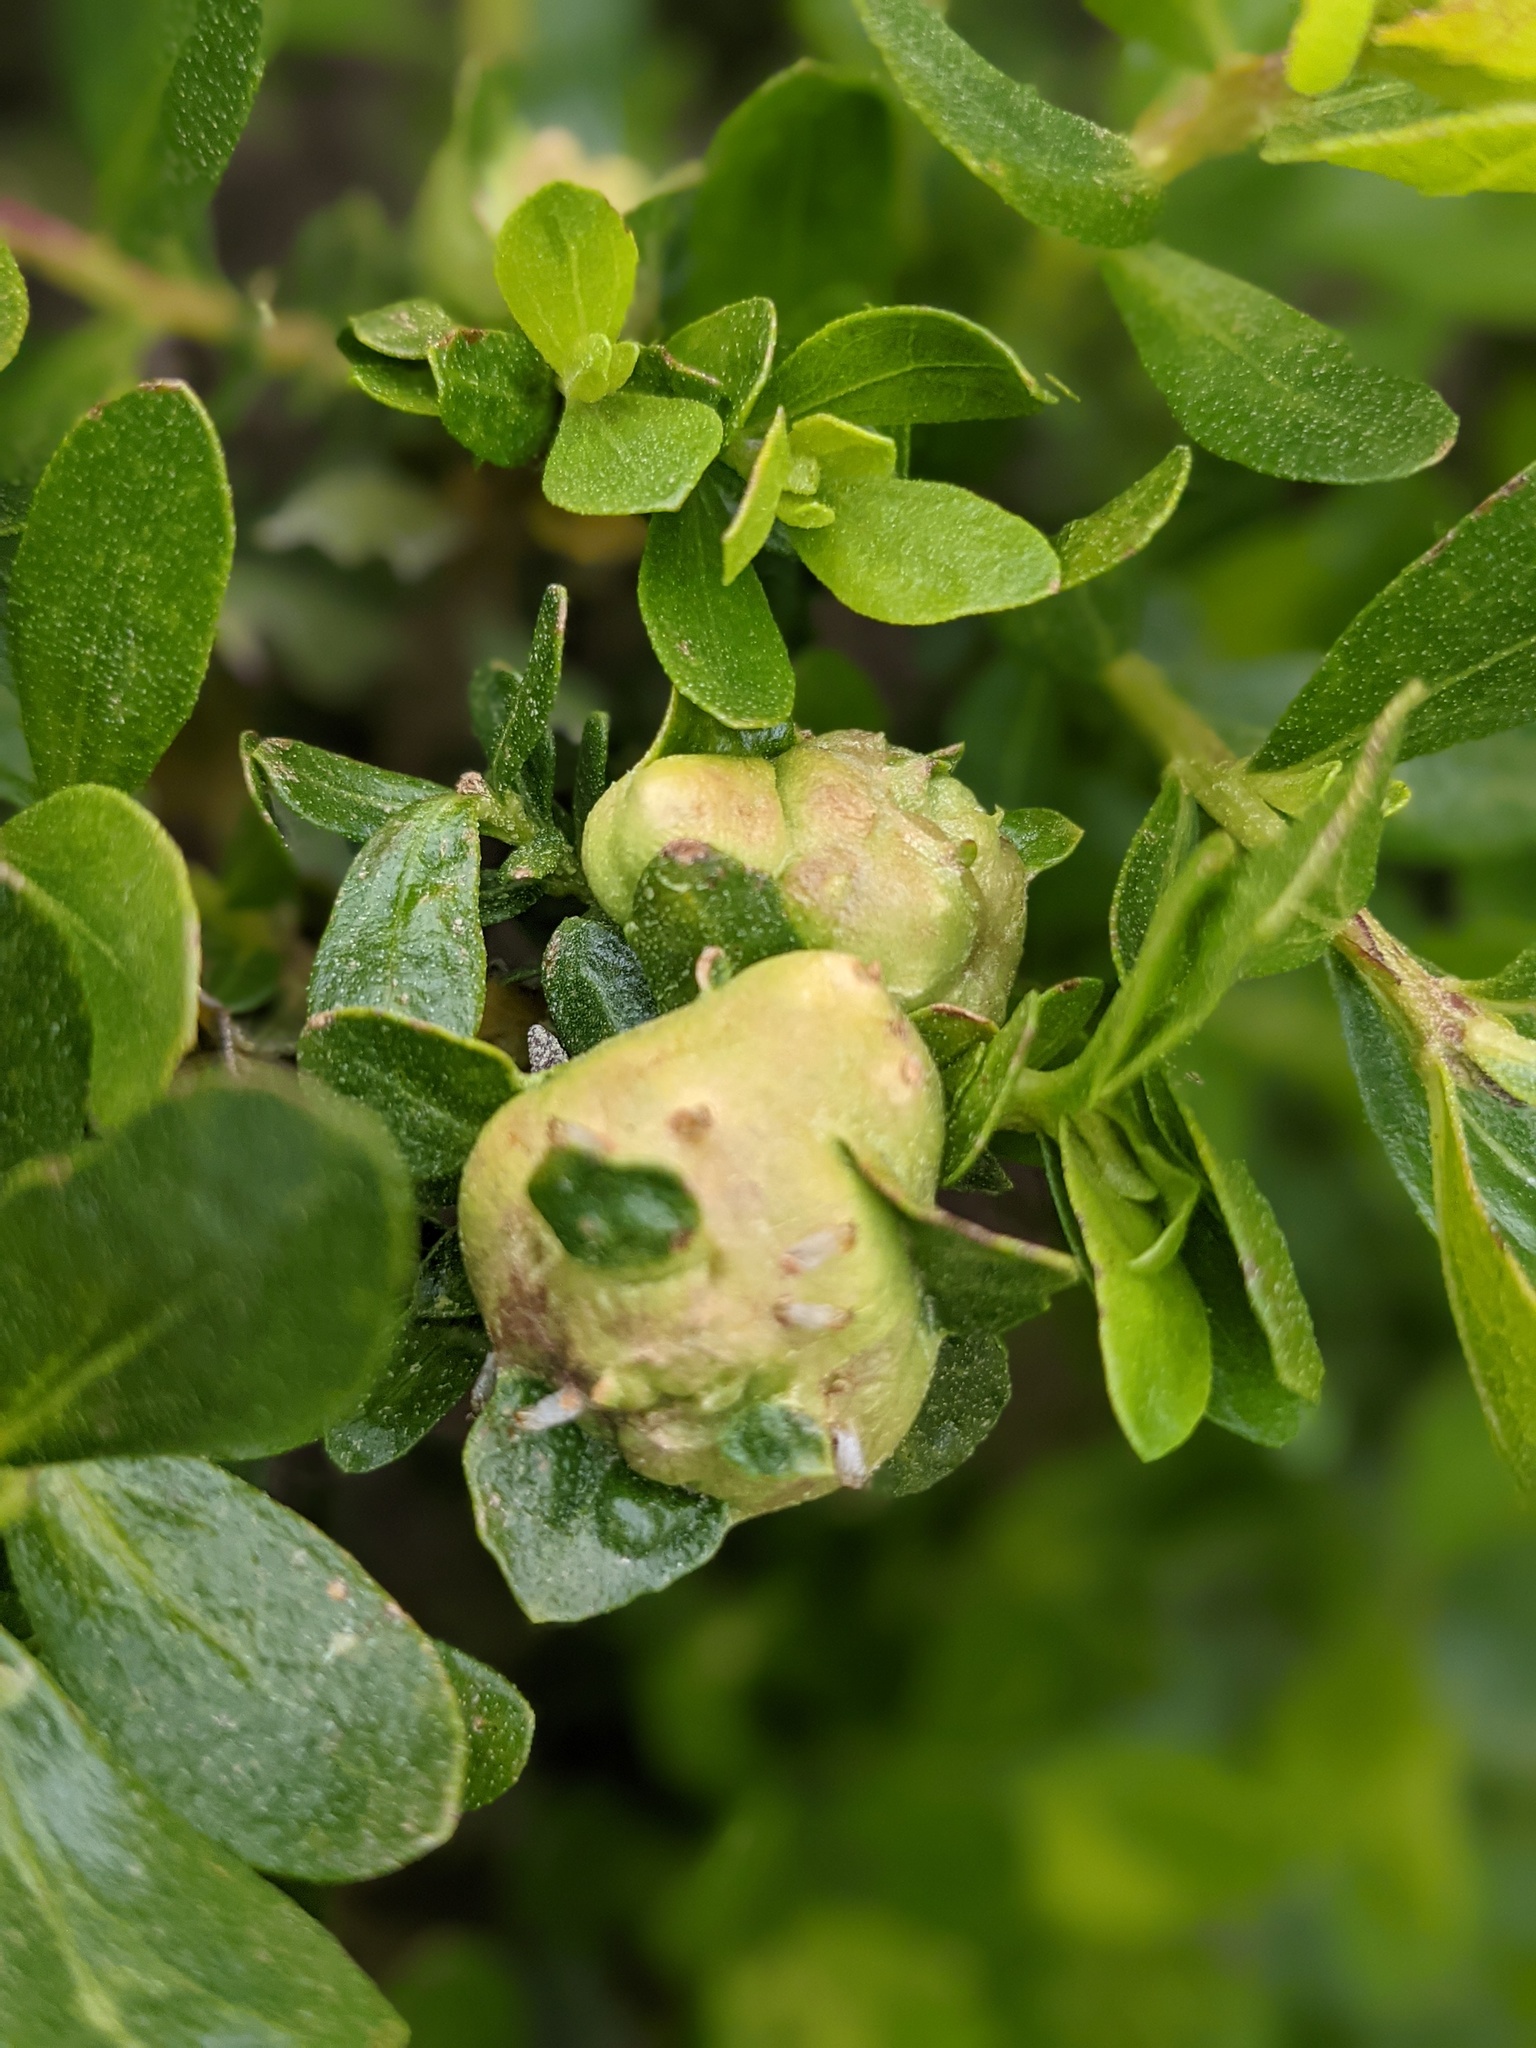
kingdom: Animalia
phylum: Arthropoda
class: Insecta
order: Diptera
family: Cecidomyiidae
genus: Rhopalomyia
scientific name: Rhopalomyia californica
